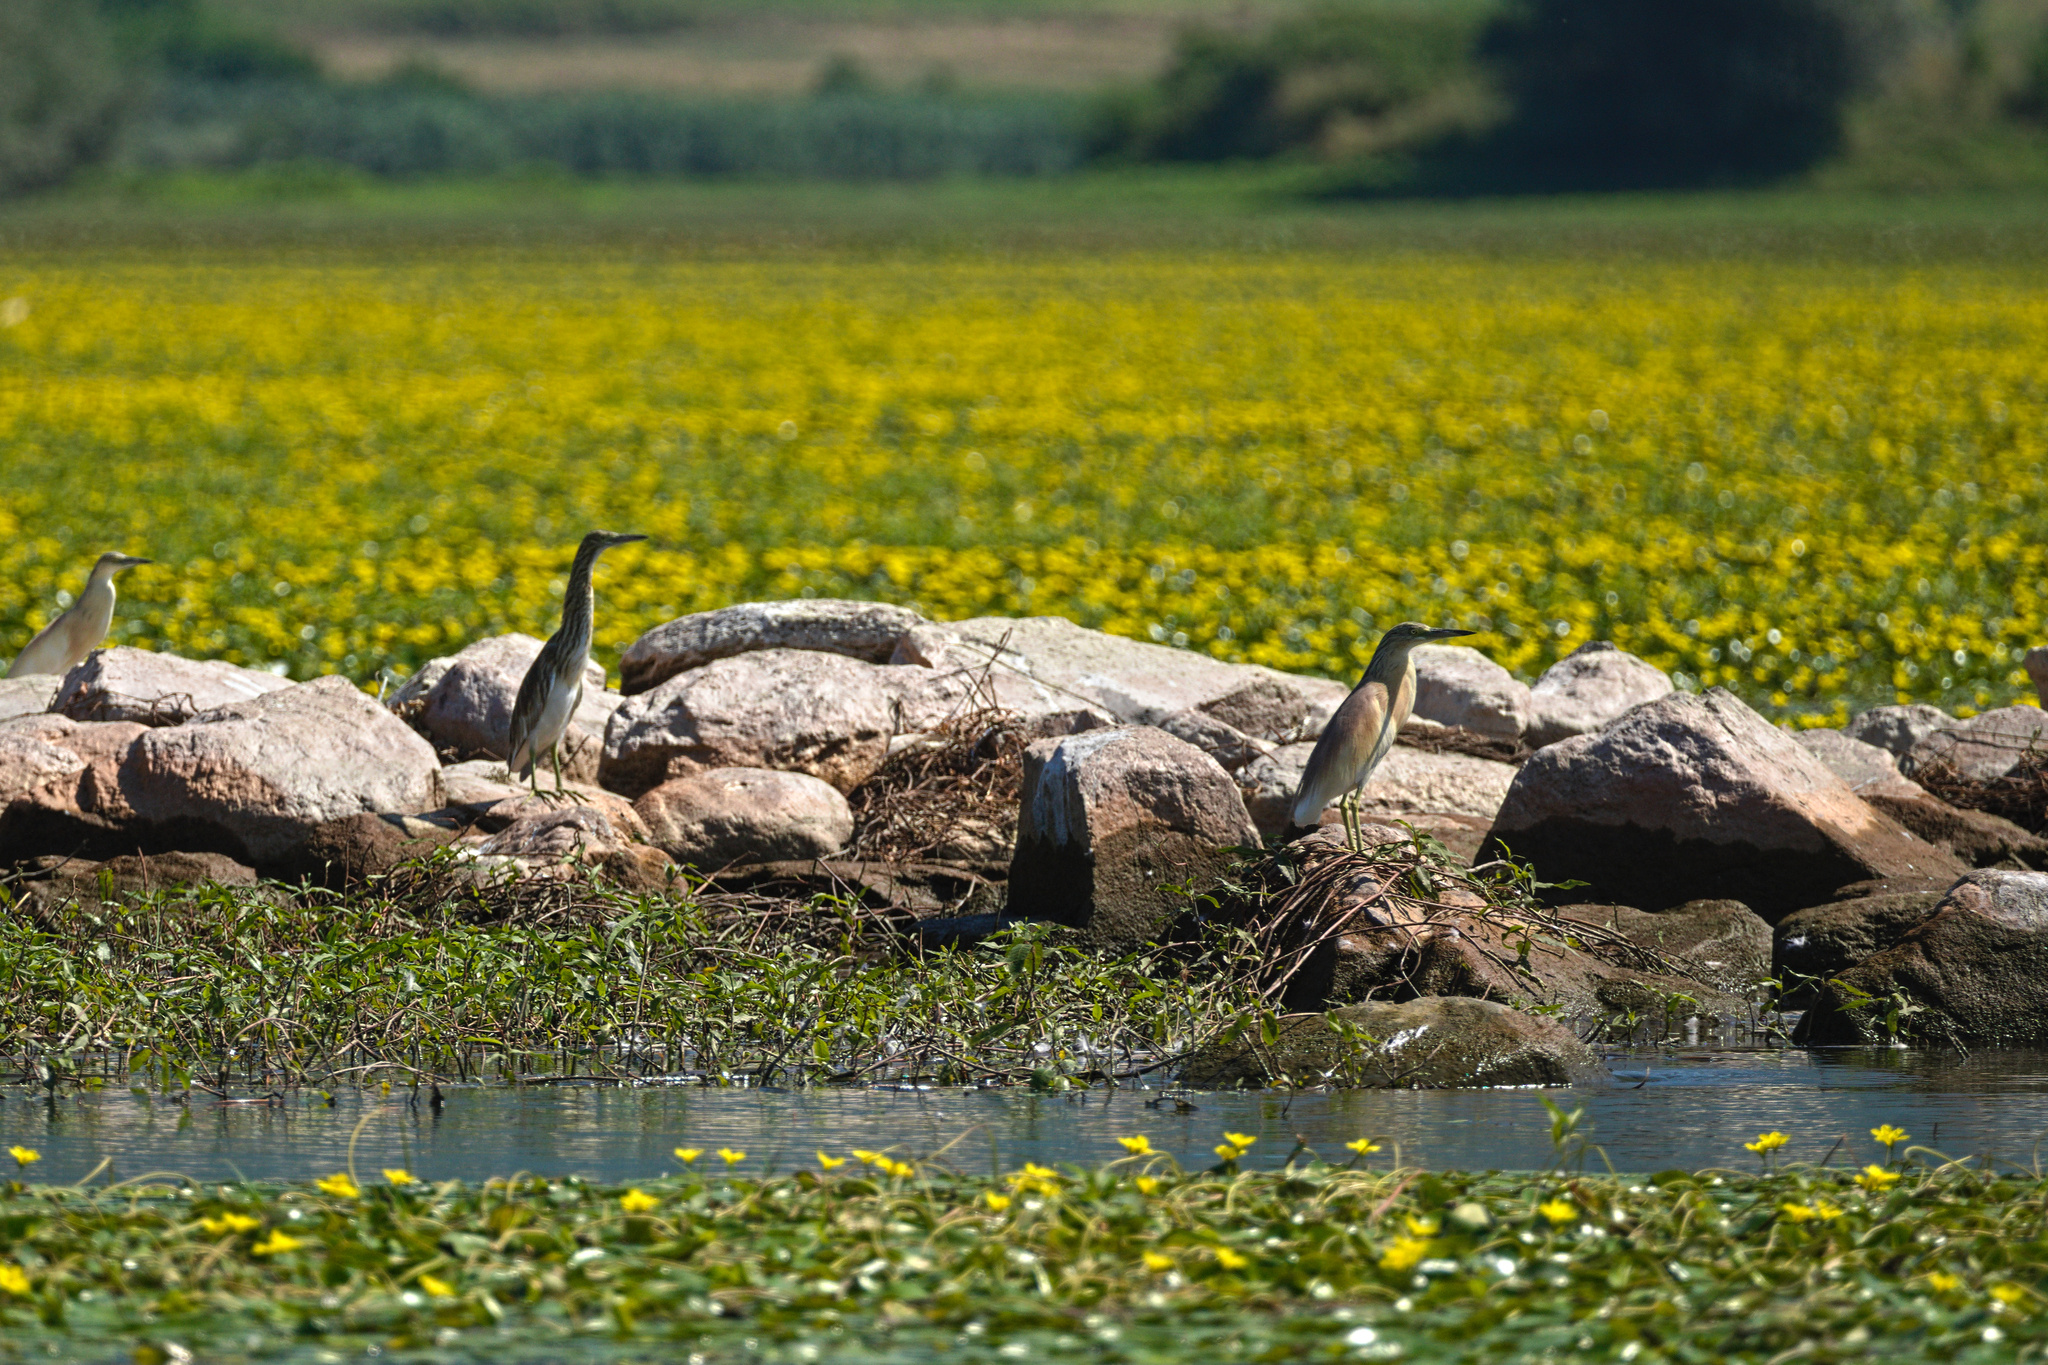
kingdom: Animalia
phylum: Chordata
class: Aves
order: Pelecaniformes
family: Ardeidae
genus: Ardeola
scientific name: Ardeola ralloides
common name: Squacco heron
